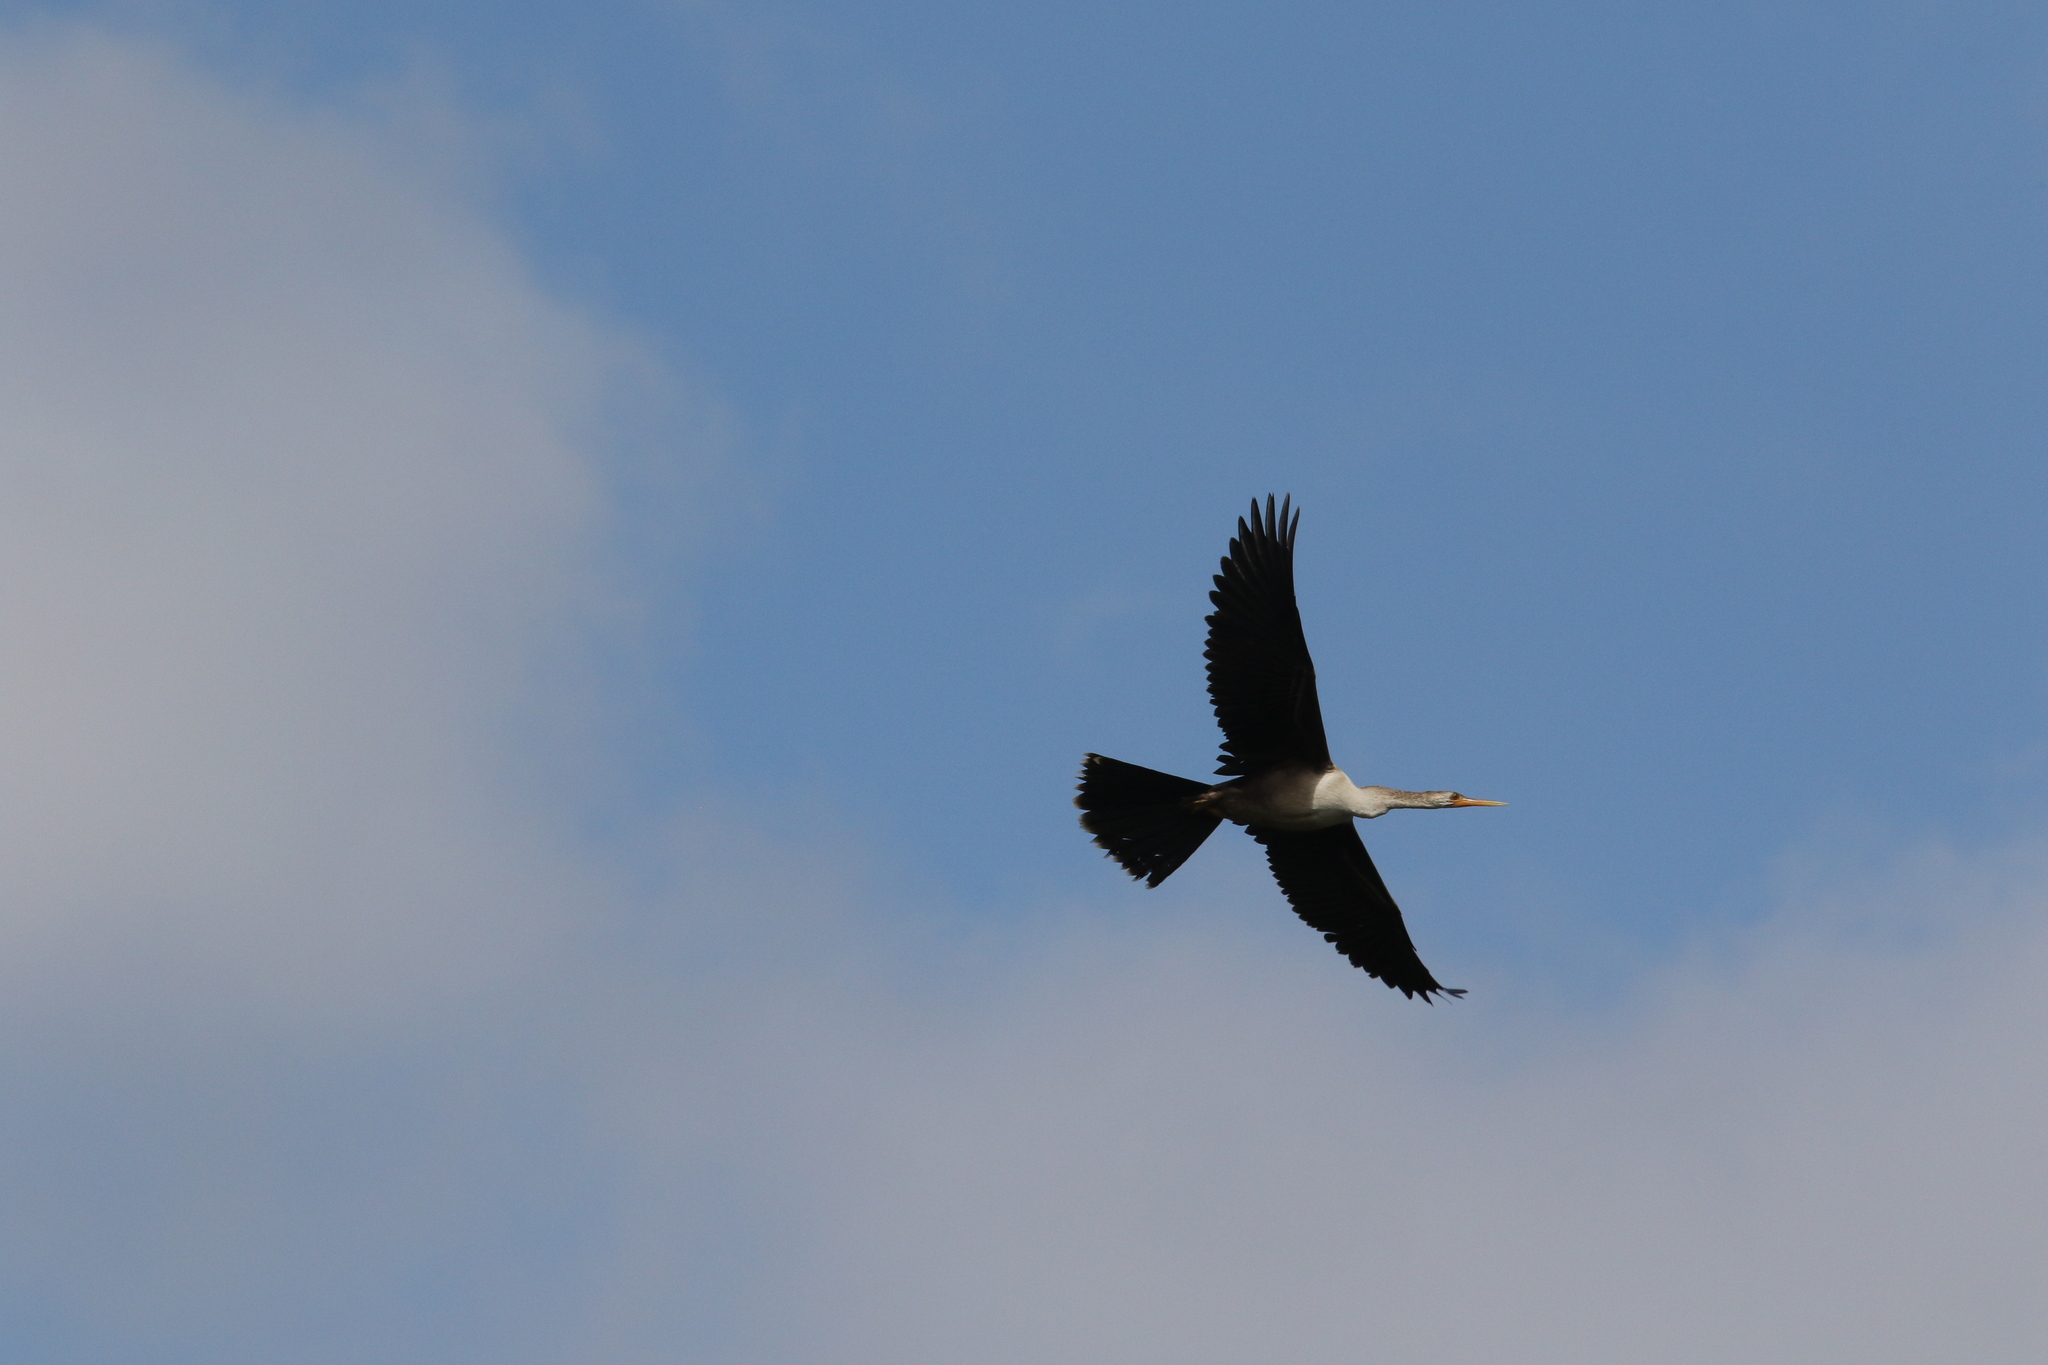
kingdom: Animalia
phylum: Chordata
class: Aves
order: Suliformes
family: Anhingidae
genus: Anhinga
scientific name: Anhinga anhinga
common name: Anhinga
